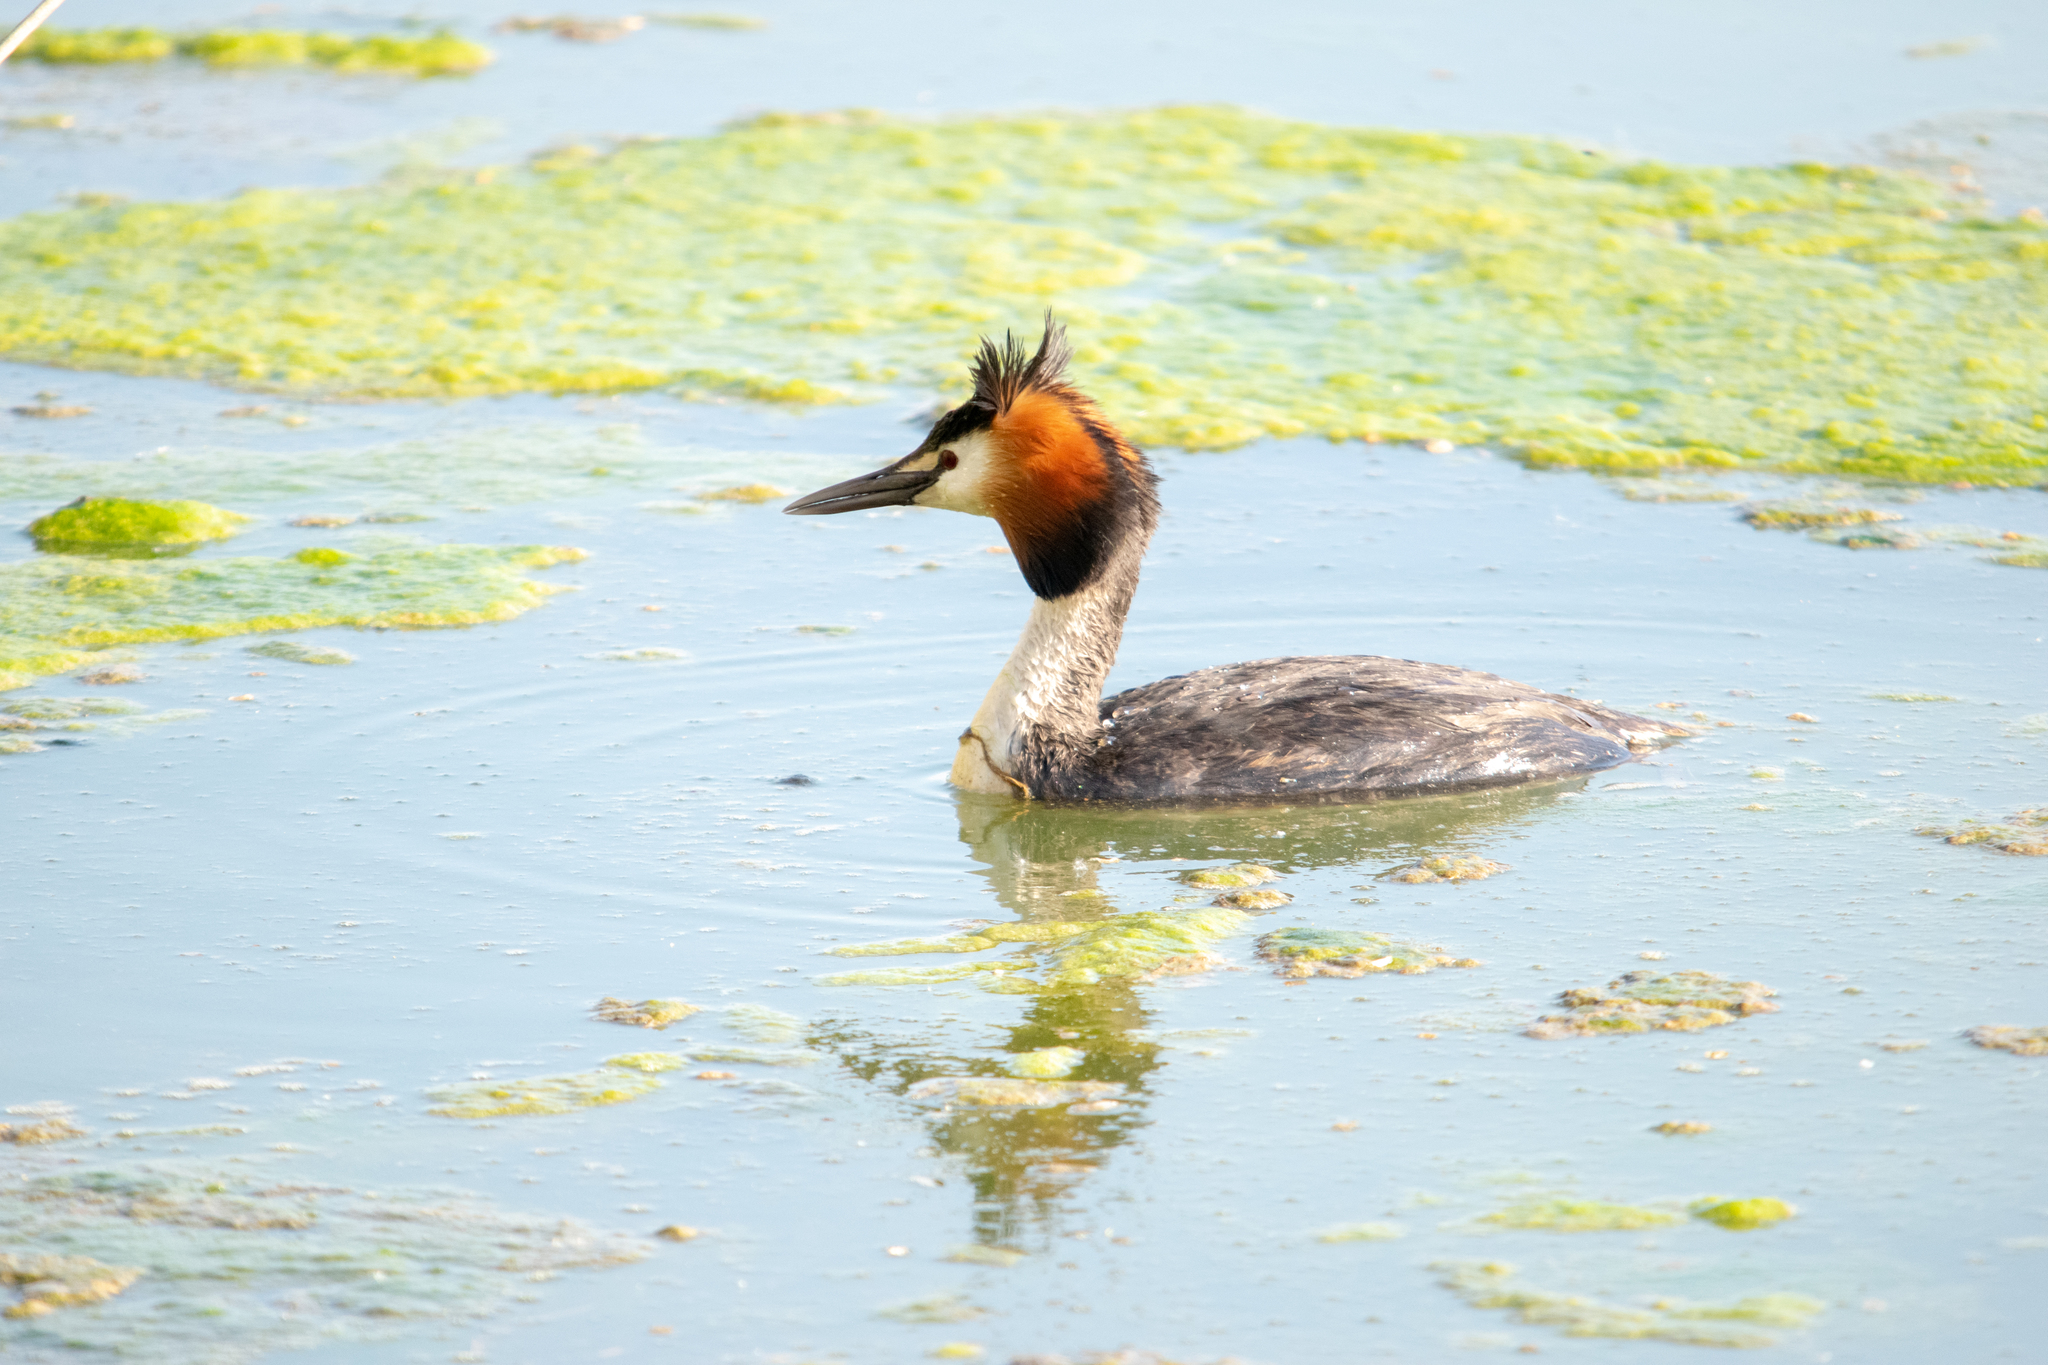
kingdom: Animalia
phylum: Chordata
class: Aves
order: Podicipediformes
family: Podicipedidae
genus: Podiceps
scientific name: Podiceps cristatus
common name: Great crested grebe
